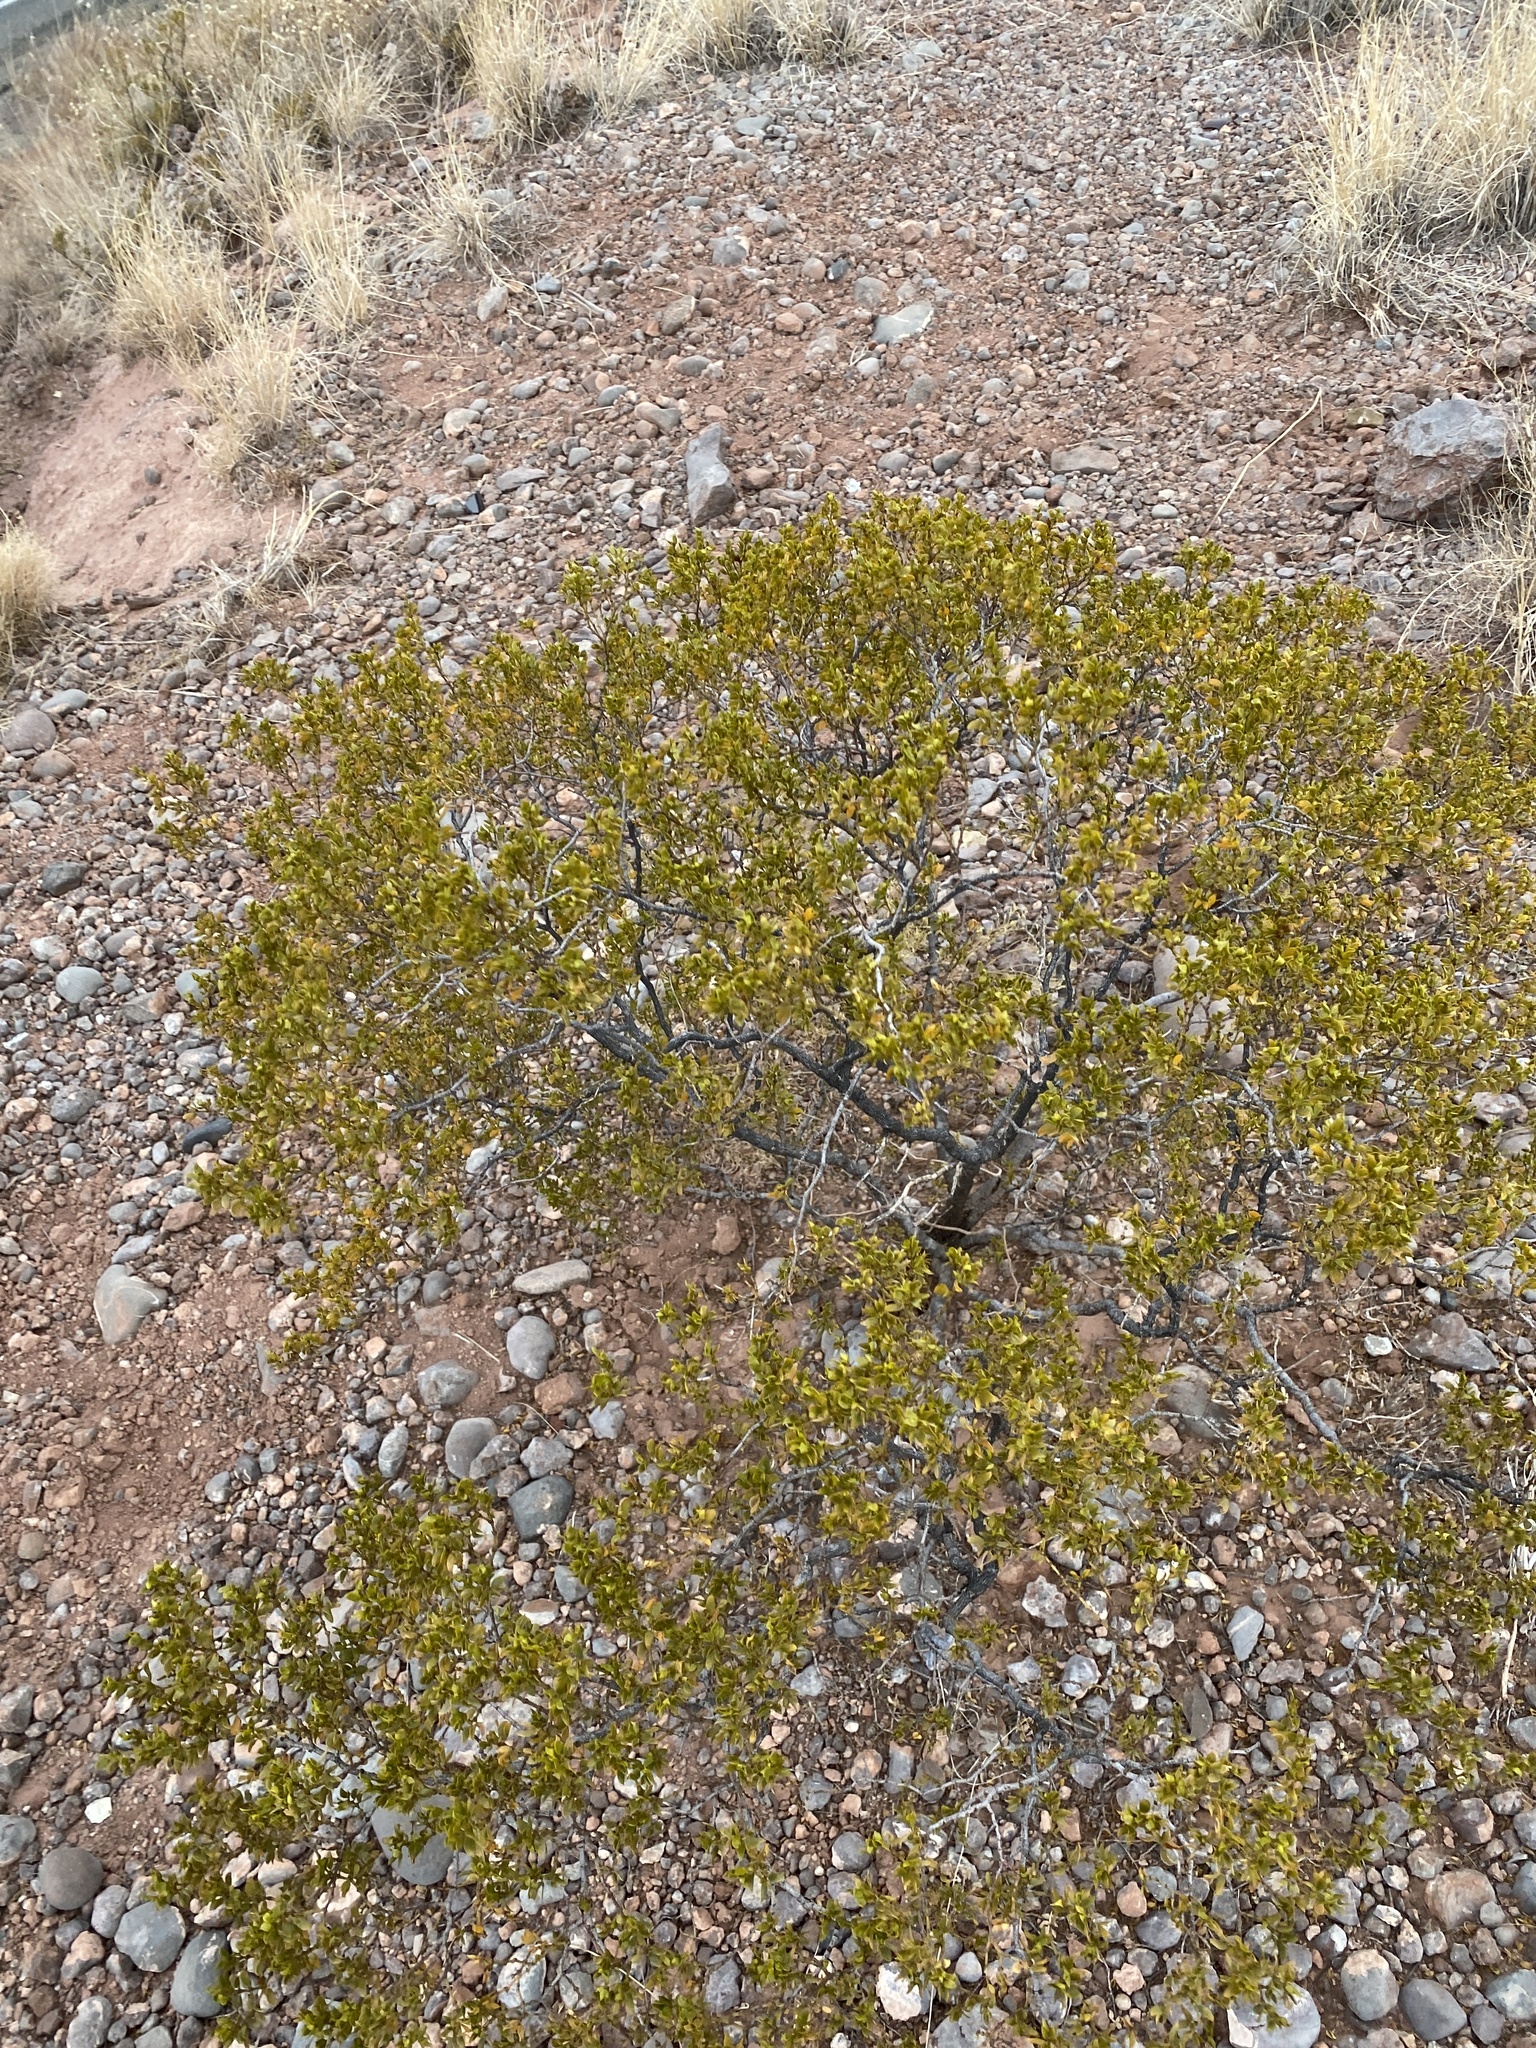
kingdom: Plantae
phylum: Tracheophyta
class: Magnoliopsida
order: Zygophyllales
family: Zygophyllaceae
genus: Larrea
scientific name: Larrea tridentata
